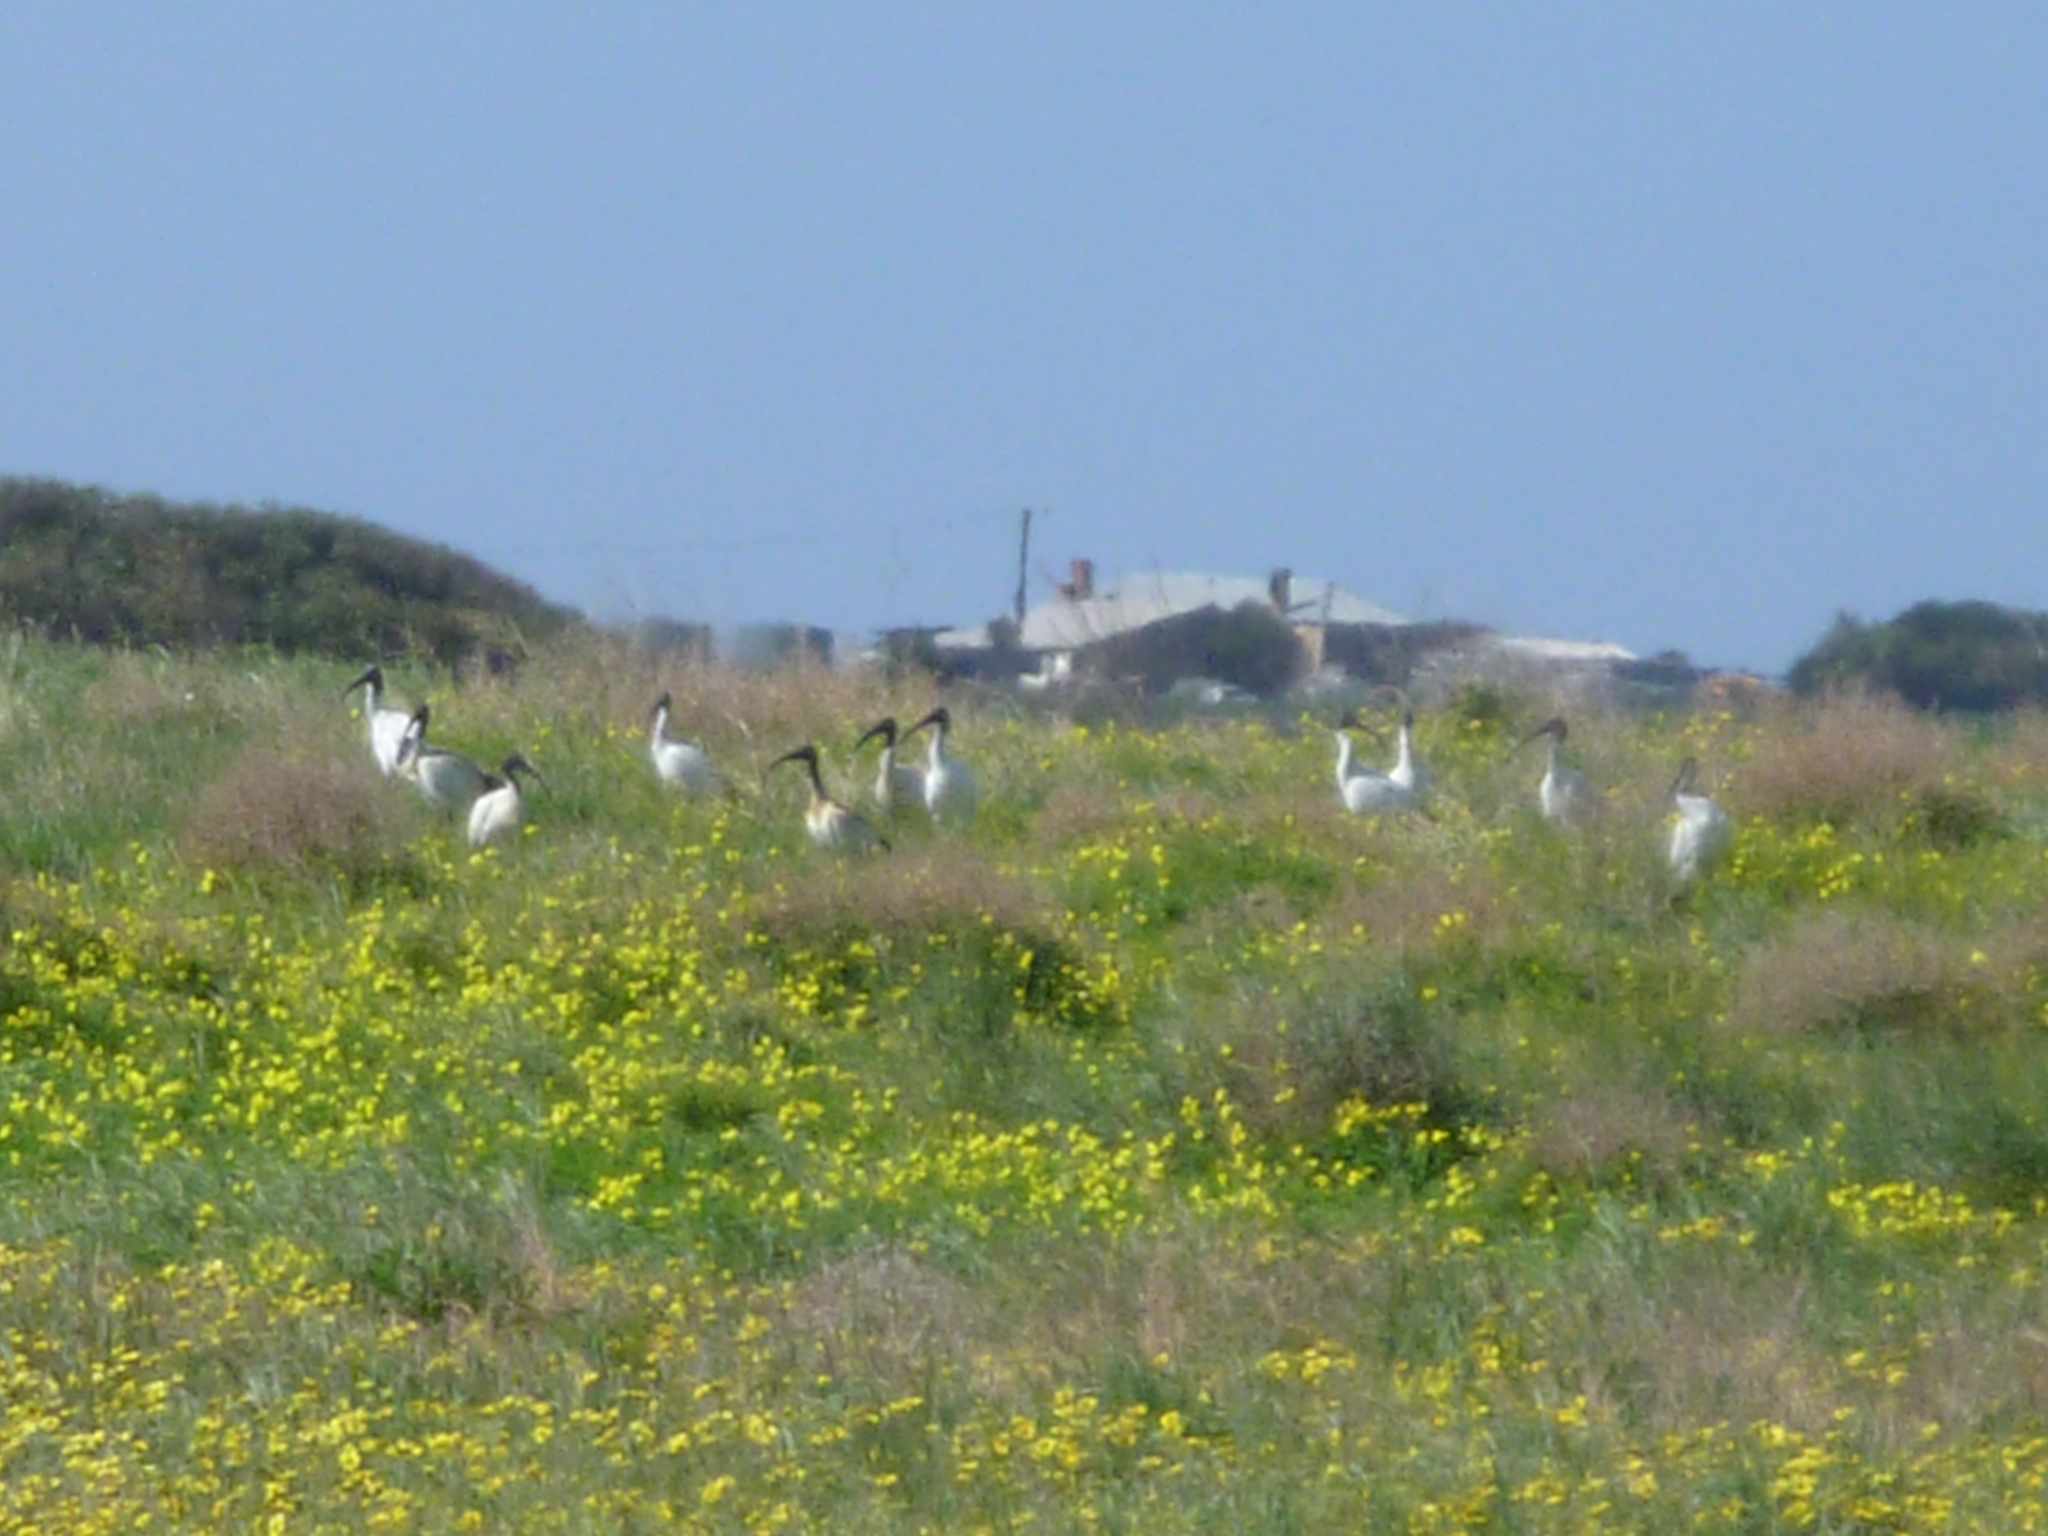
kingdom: Animalia
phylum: Chordata
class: Aves
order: Pelecaniformes
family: Threskiornithidae
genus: Threskiornis
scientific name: Threskiornis molucca
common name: Australian white ibis
